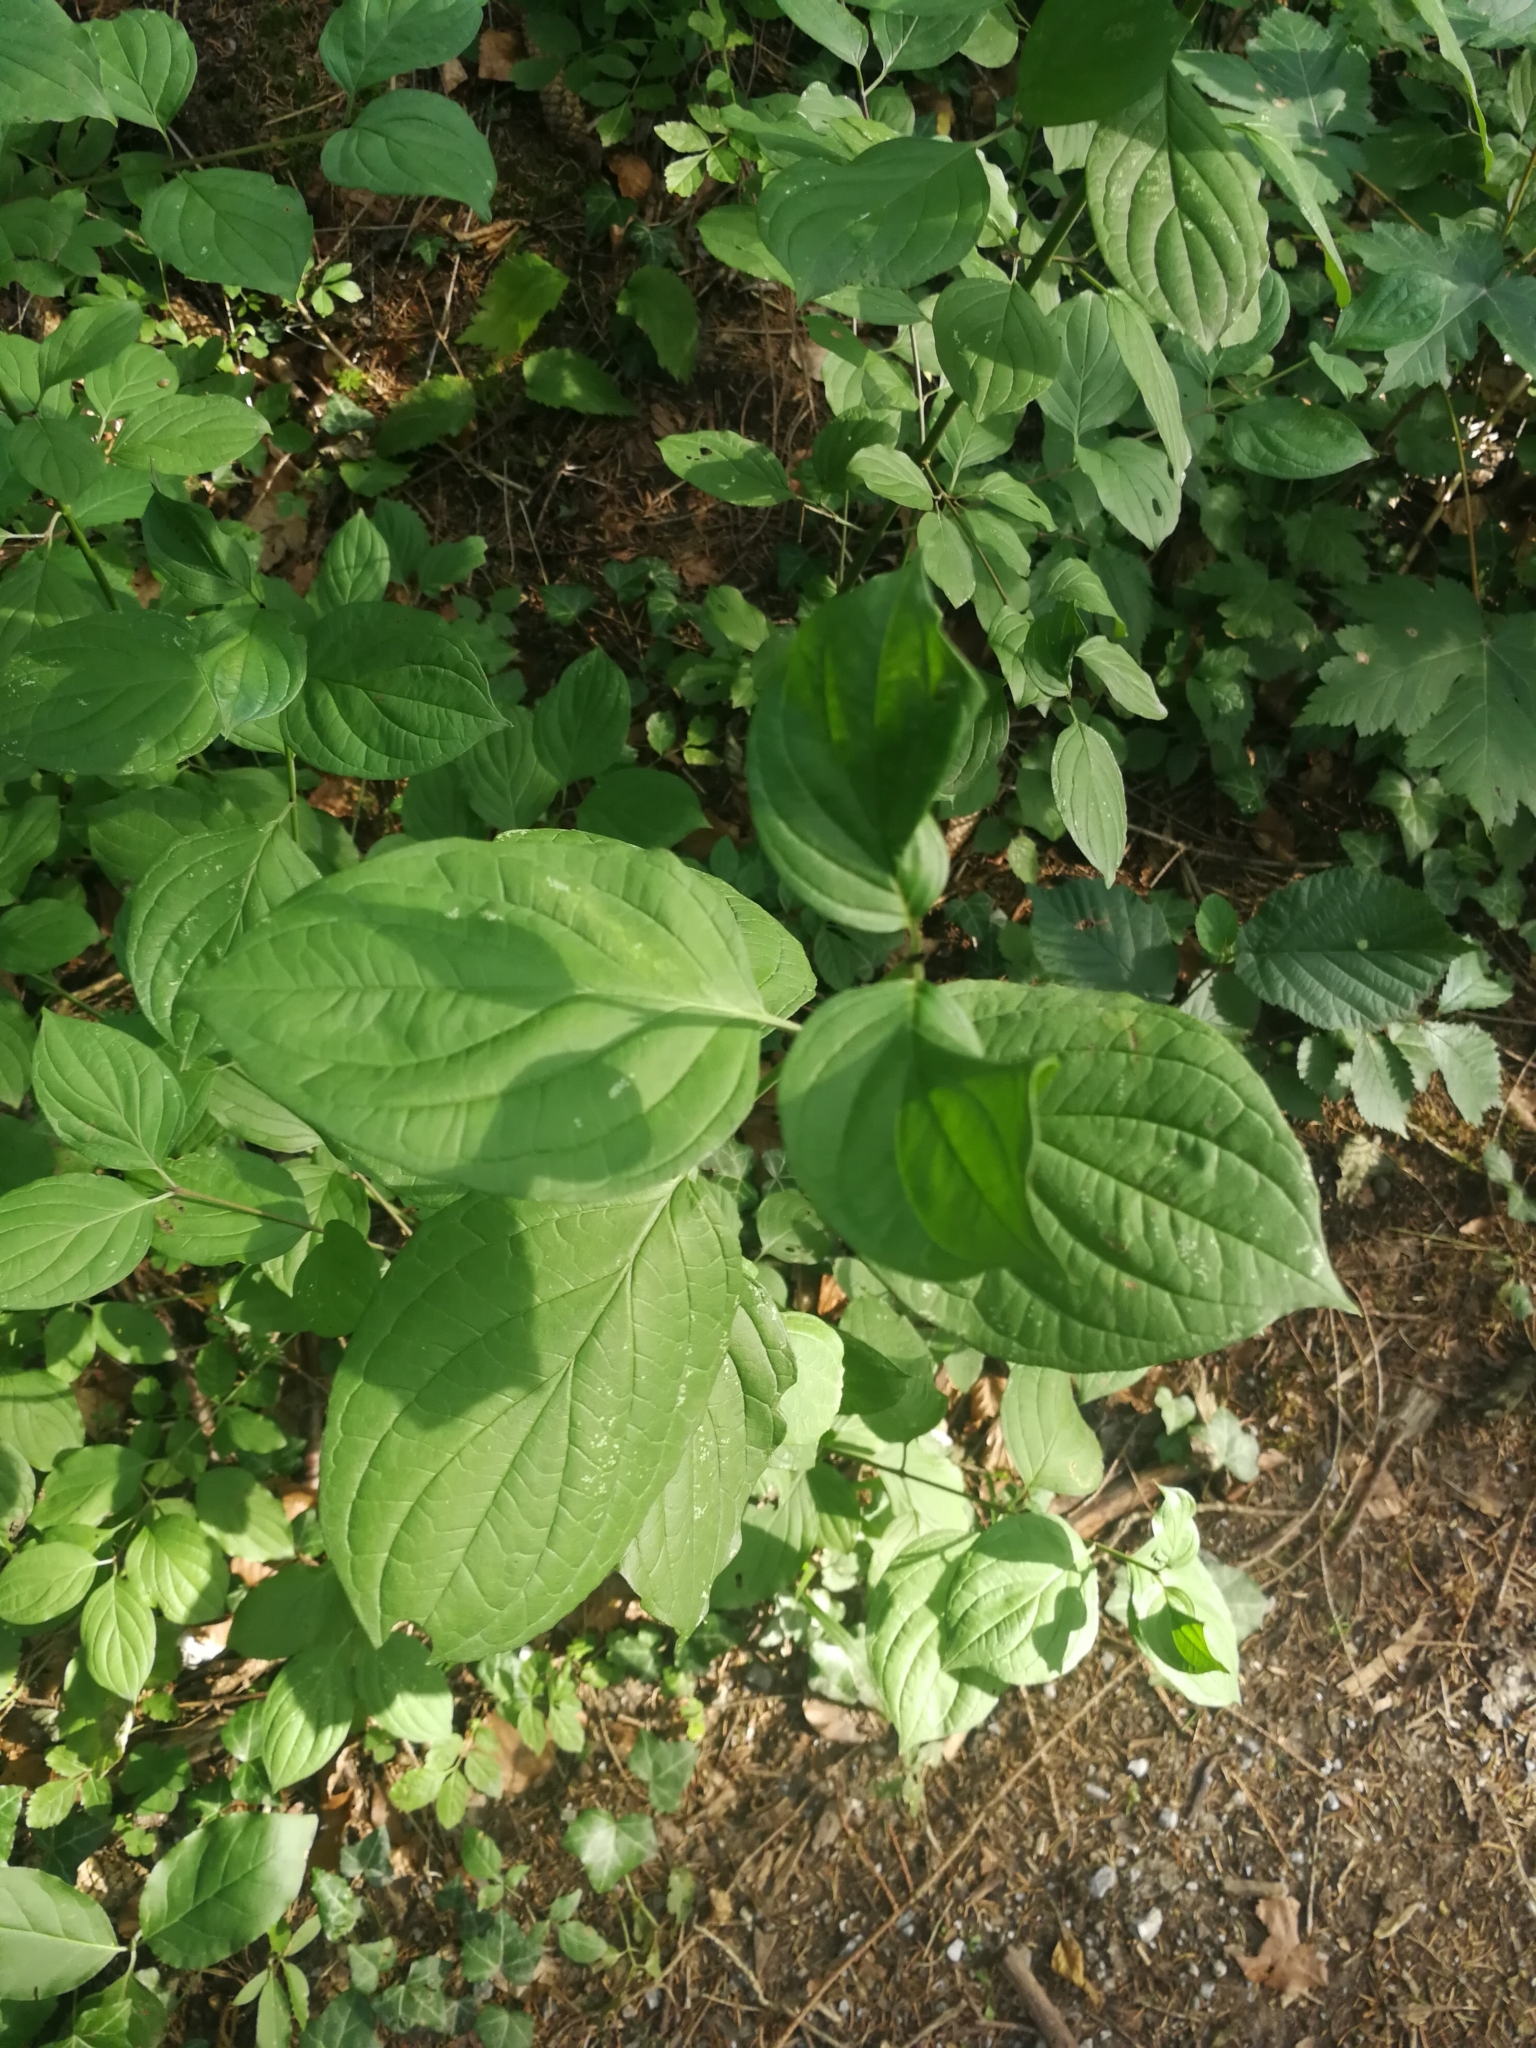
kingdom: Plantae
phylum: Tracheophyta
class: Magnoliopsida
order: Cornales
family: Cornaceae
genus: Cornus
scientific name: Cornus sanguinea
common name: Dogwood
